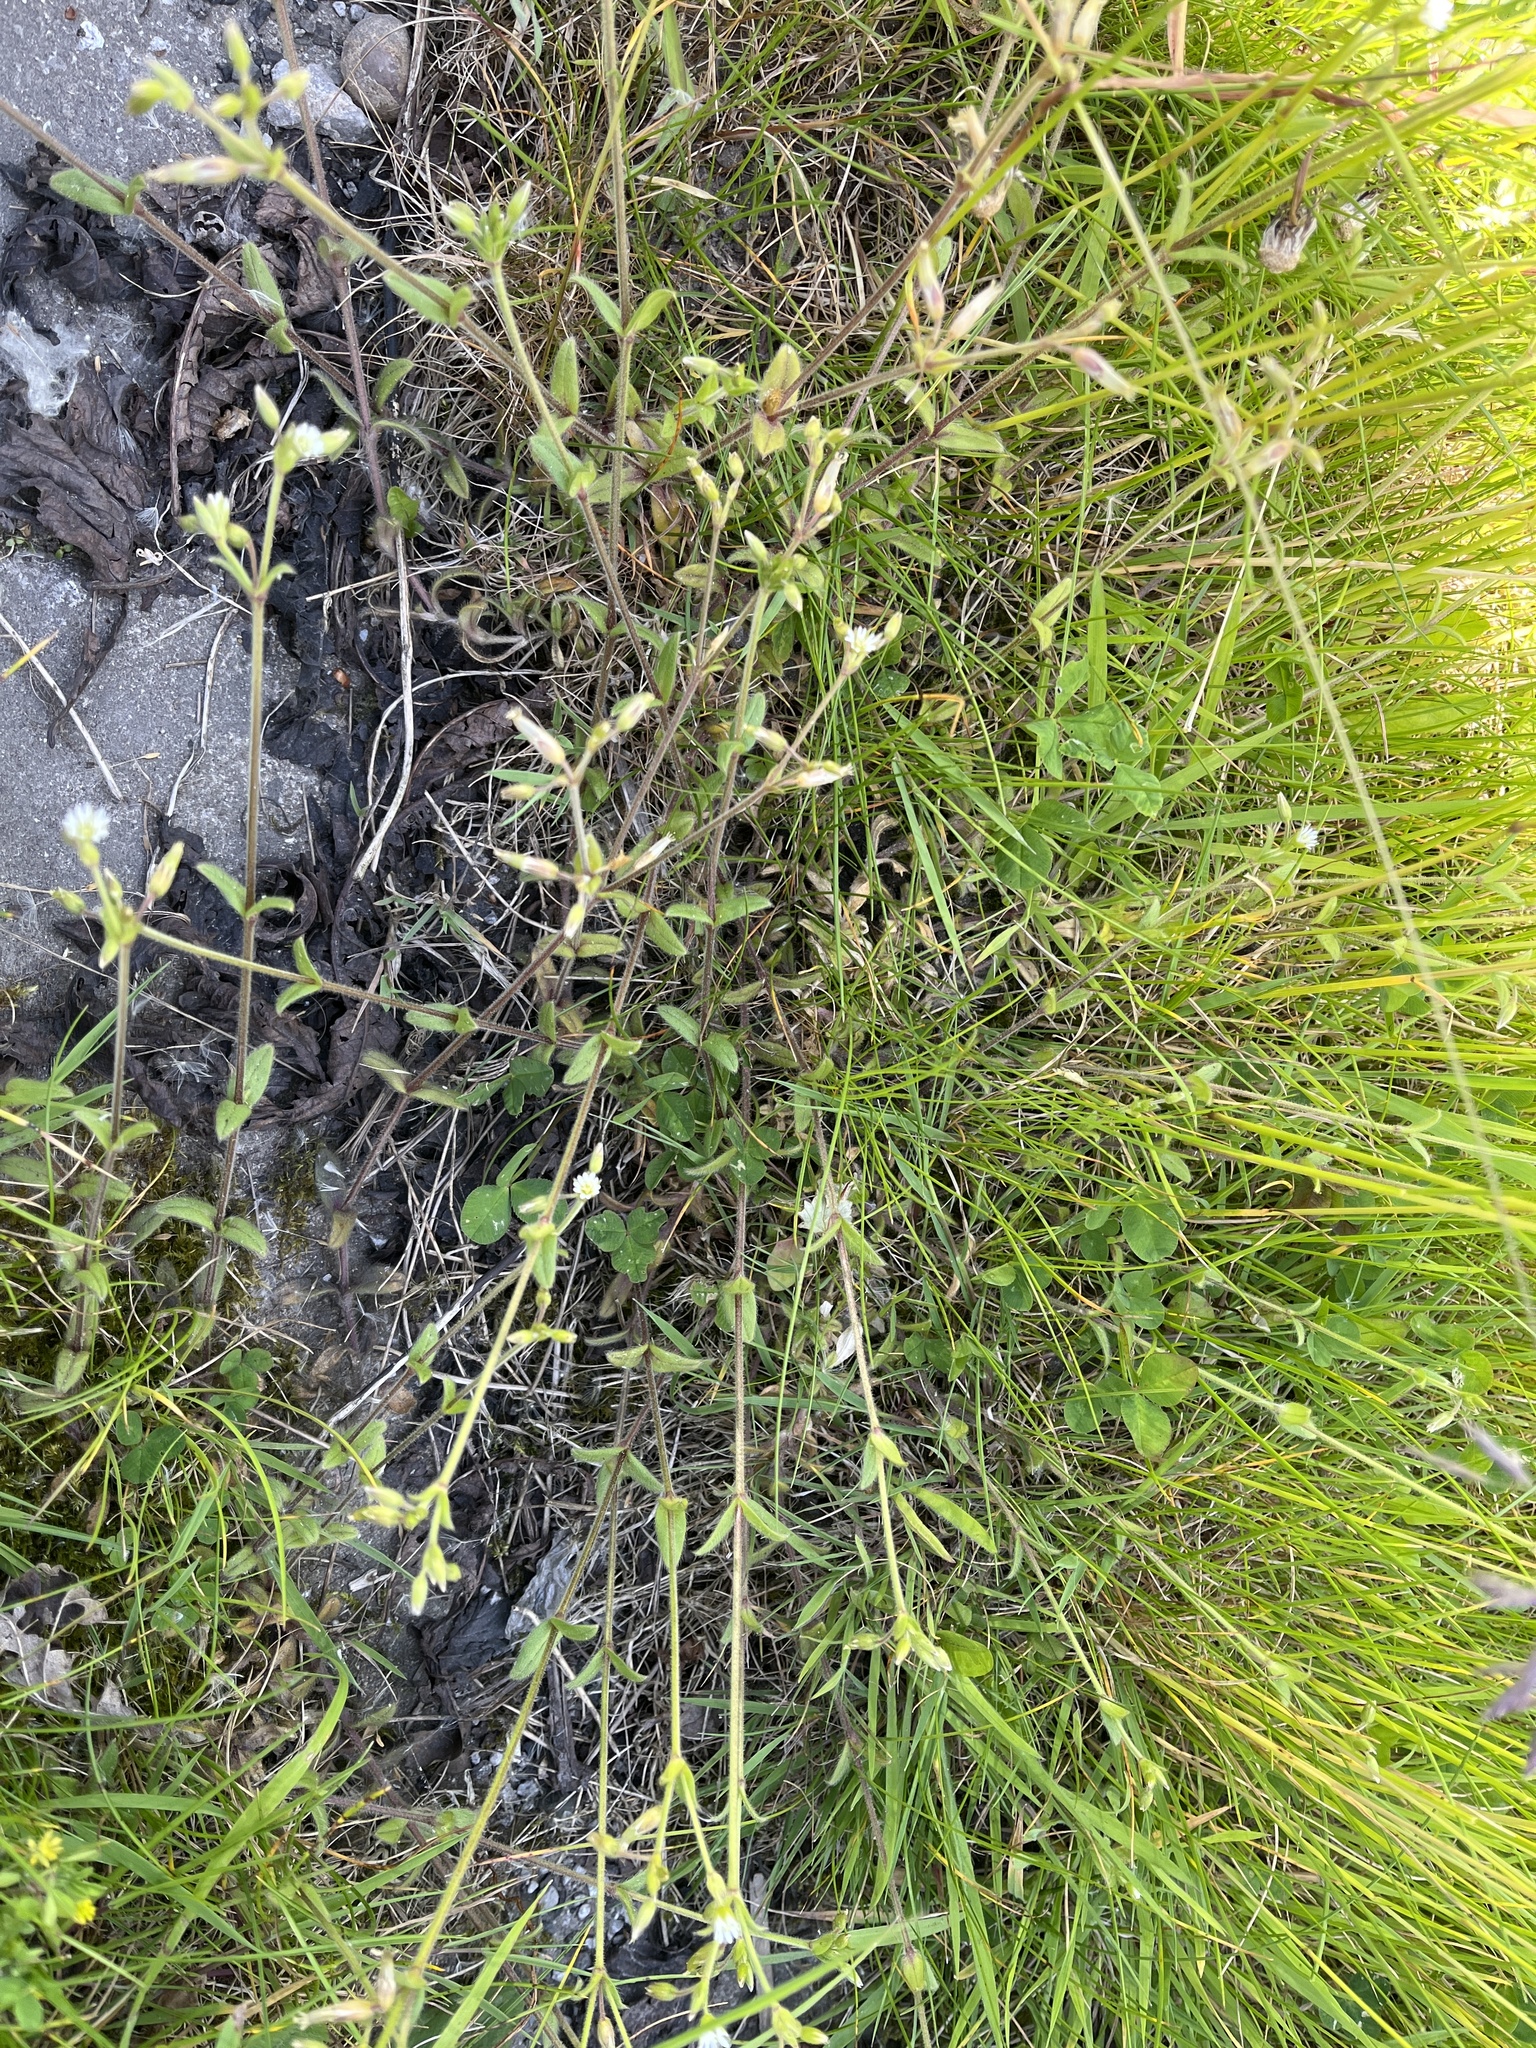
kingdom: Plantae
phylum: Tracheophyta
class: Magnoliopsida
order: Caryophyllales
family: Caryophyllaceae
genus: Cerastium
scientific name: Cerastium fontanum
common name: Common mouse-ear
